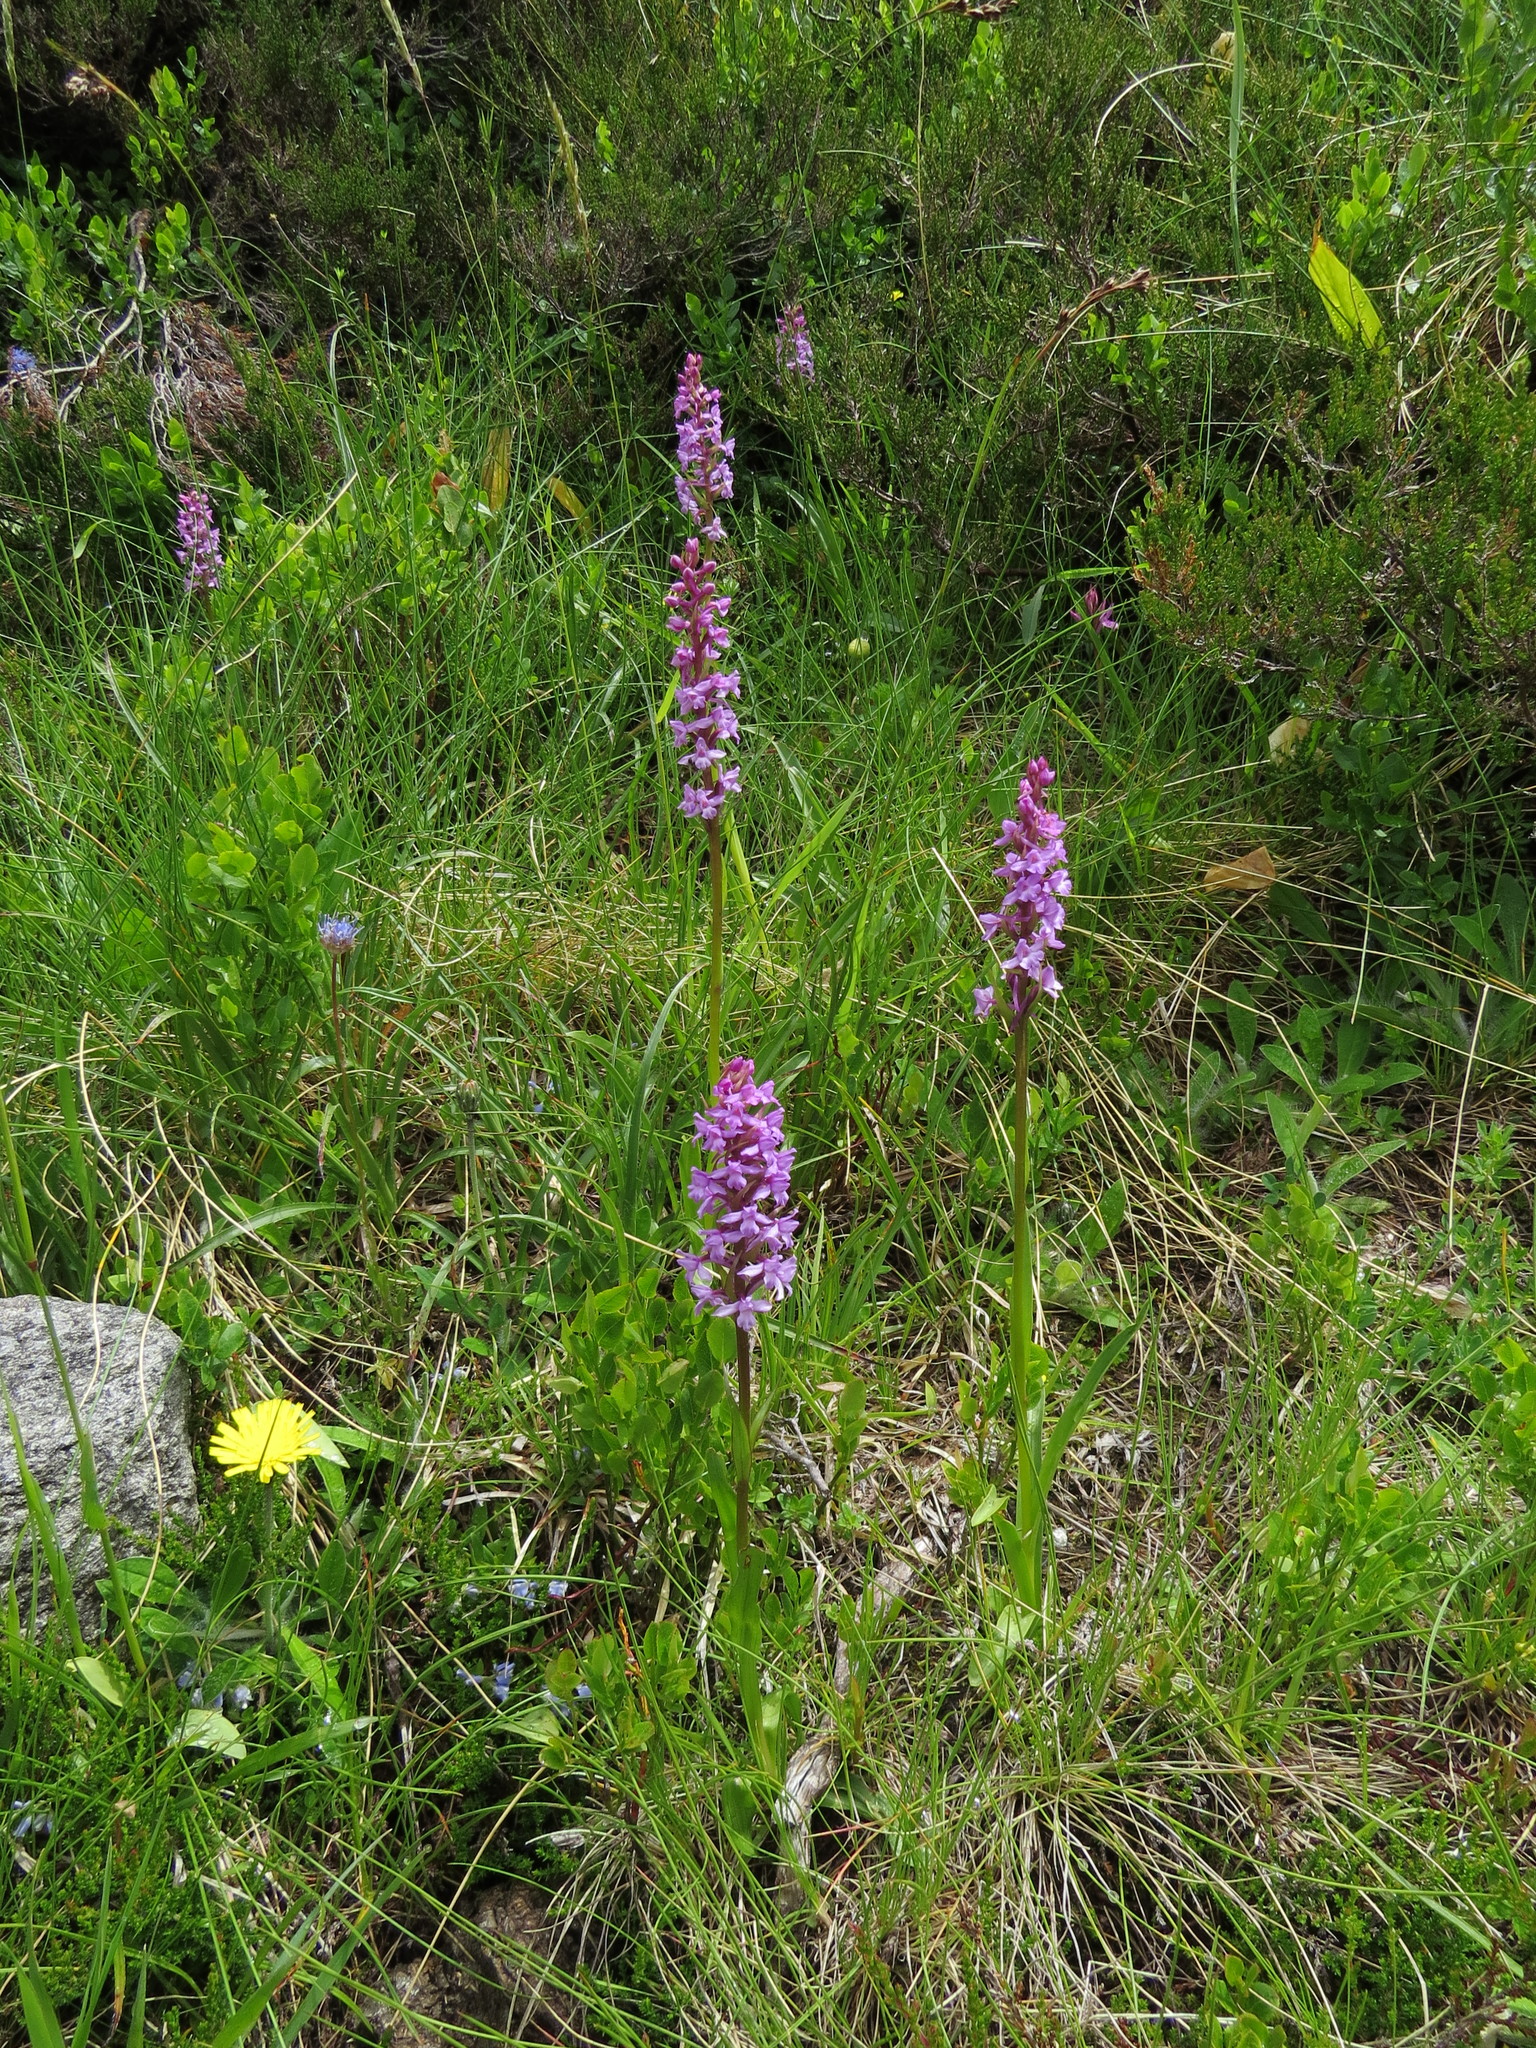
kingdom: Plantae
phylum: Tracheophyta
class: Liliopsida
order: Asparagales
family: Orchidaceae
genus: Gymnadenia
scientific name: Gymnadenia conopsea
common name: Fragrant orchid
